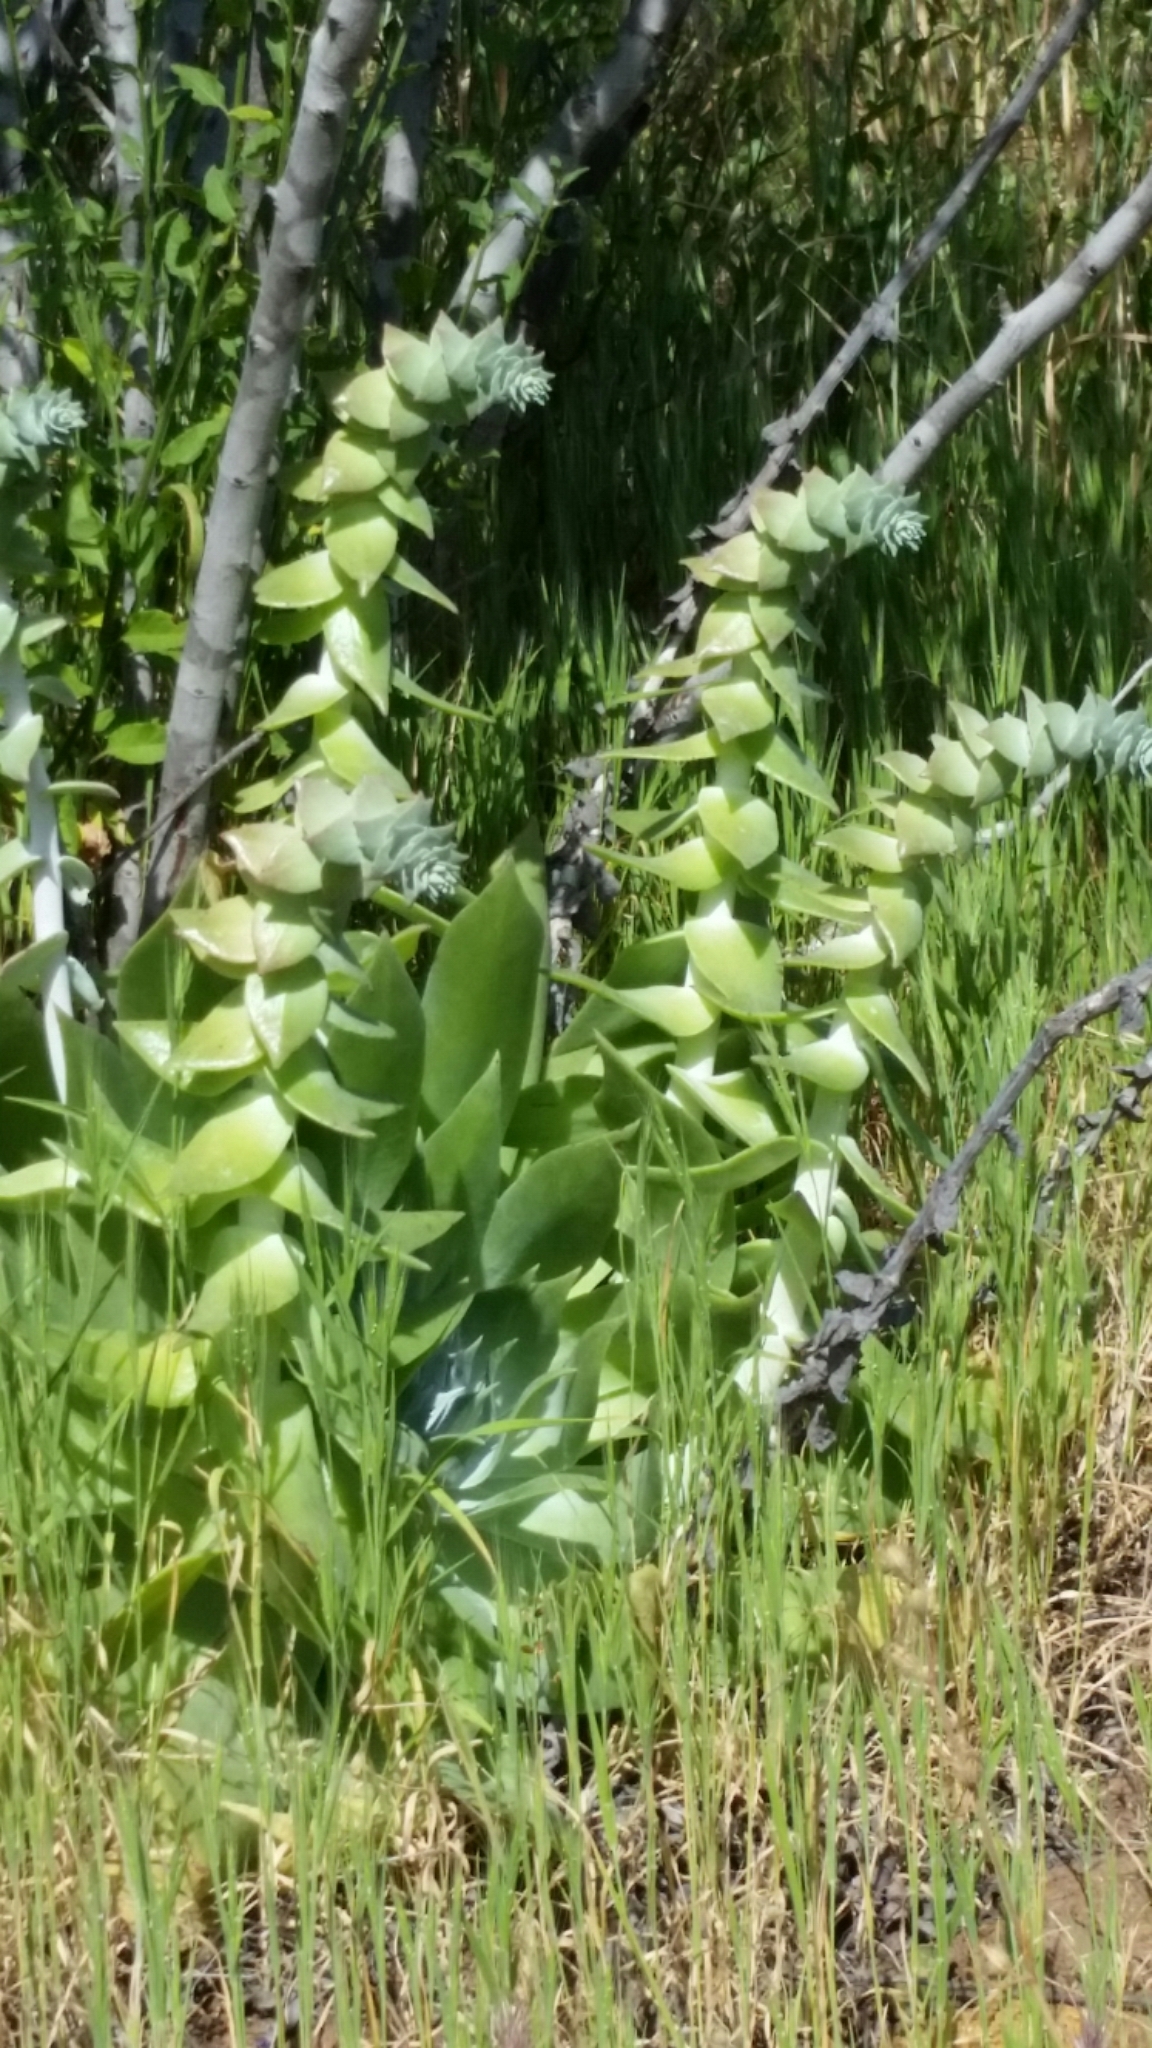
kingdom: Plantae
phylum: Tracheophyta
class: Magnoliopsida
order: Saxifragales
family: Crassulaceae
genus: Dudleya
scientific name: Dudleya pulverulenta
